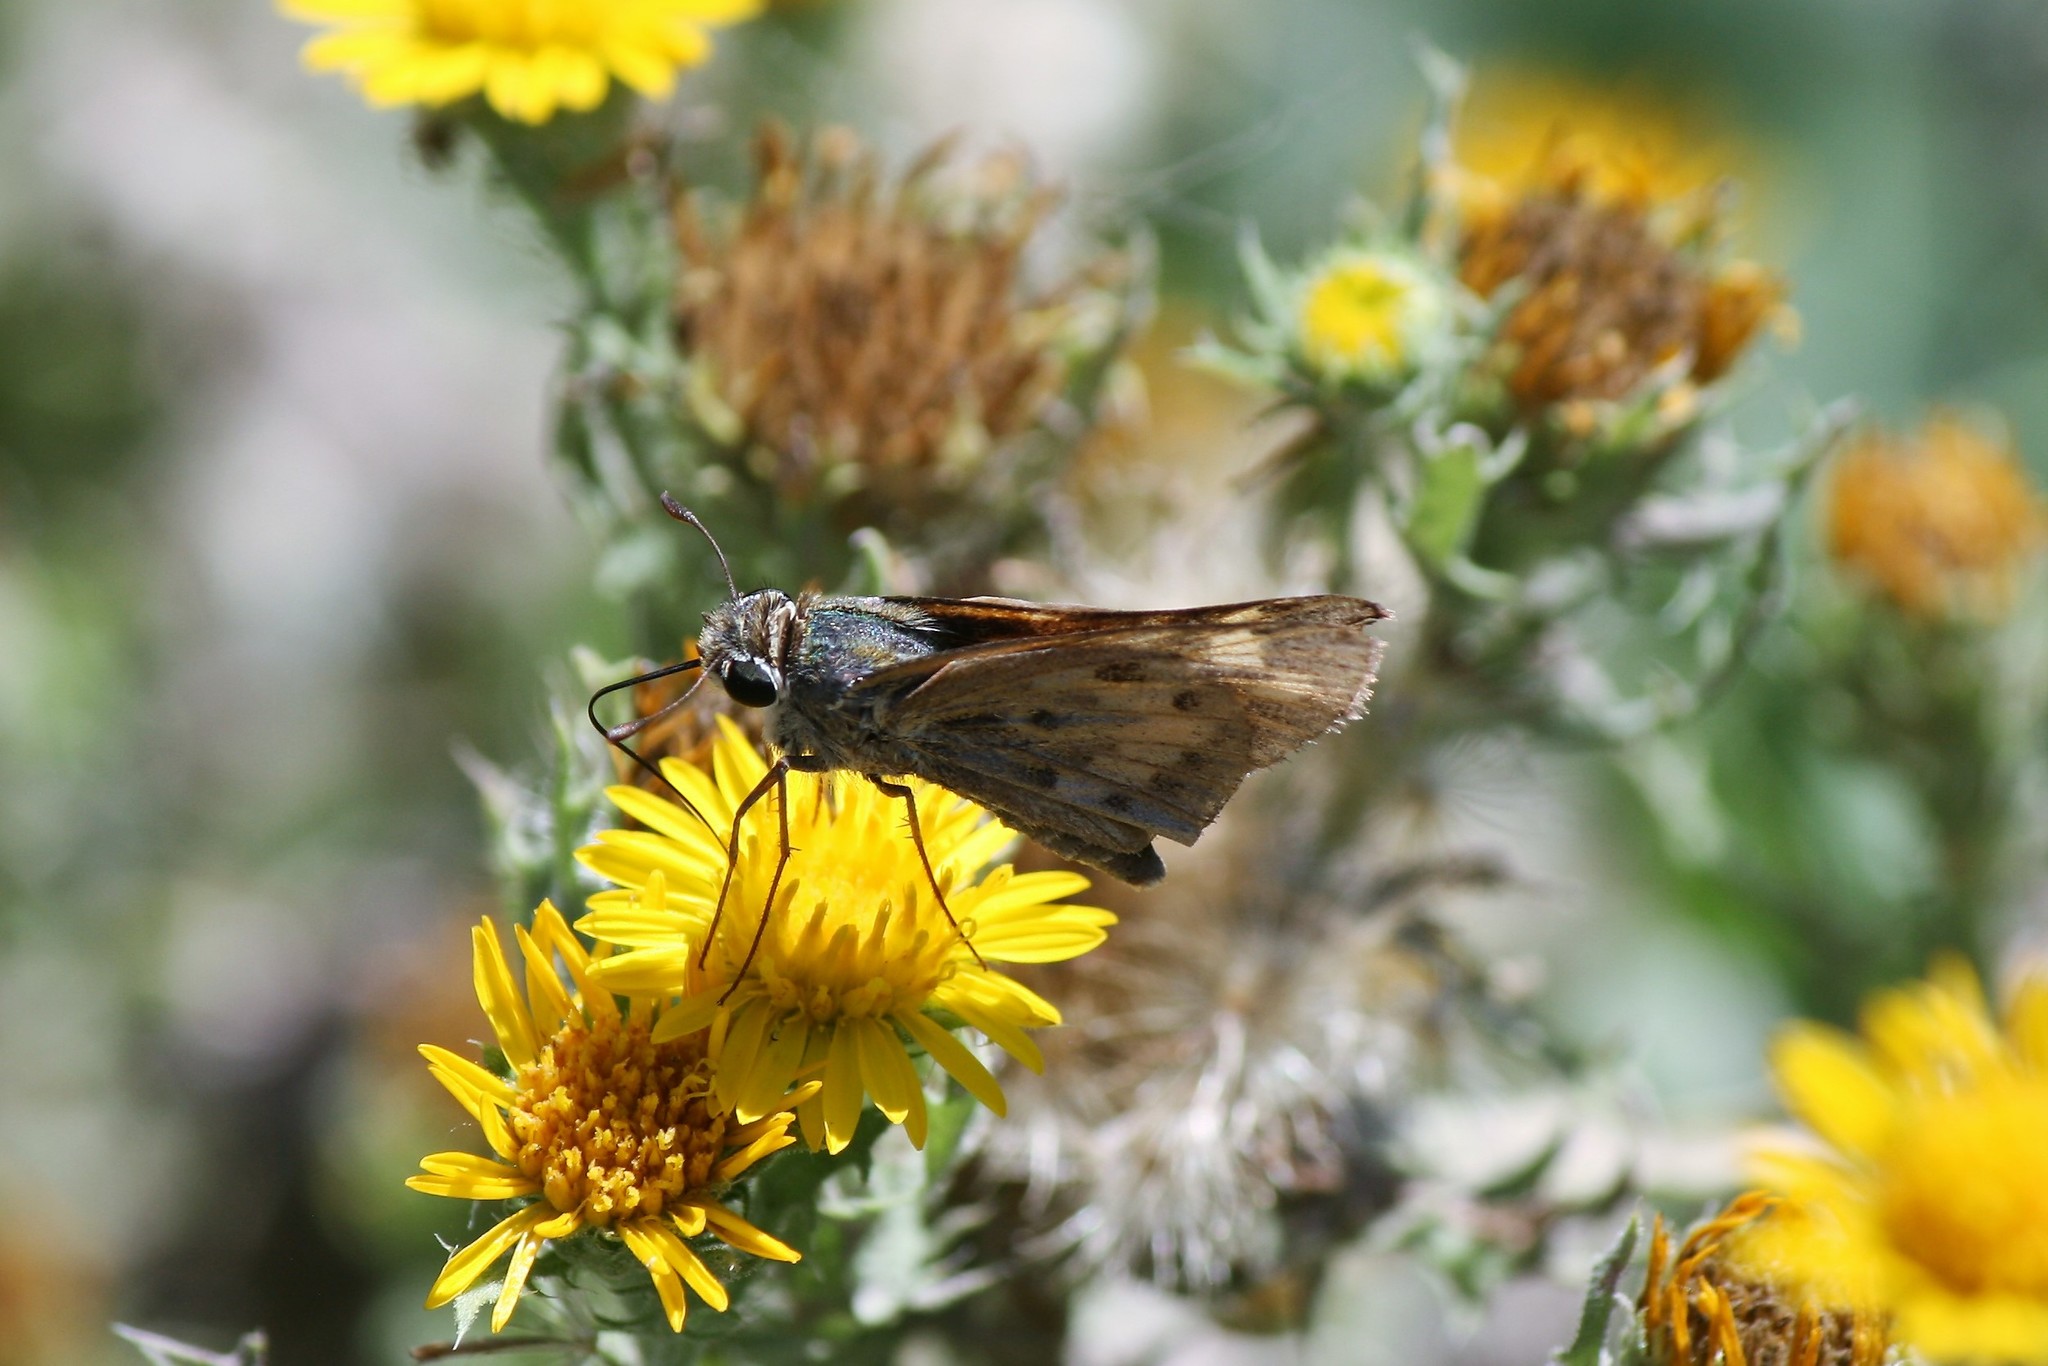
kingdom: Animalia
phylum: Arthropoda
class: Insecta
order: Lepidoptera
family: Hesperiidae
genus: Hylephila
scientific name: Hylephila phyleus
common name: Fiery skipper
